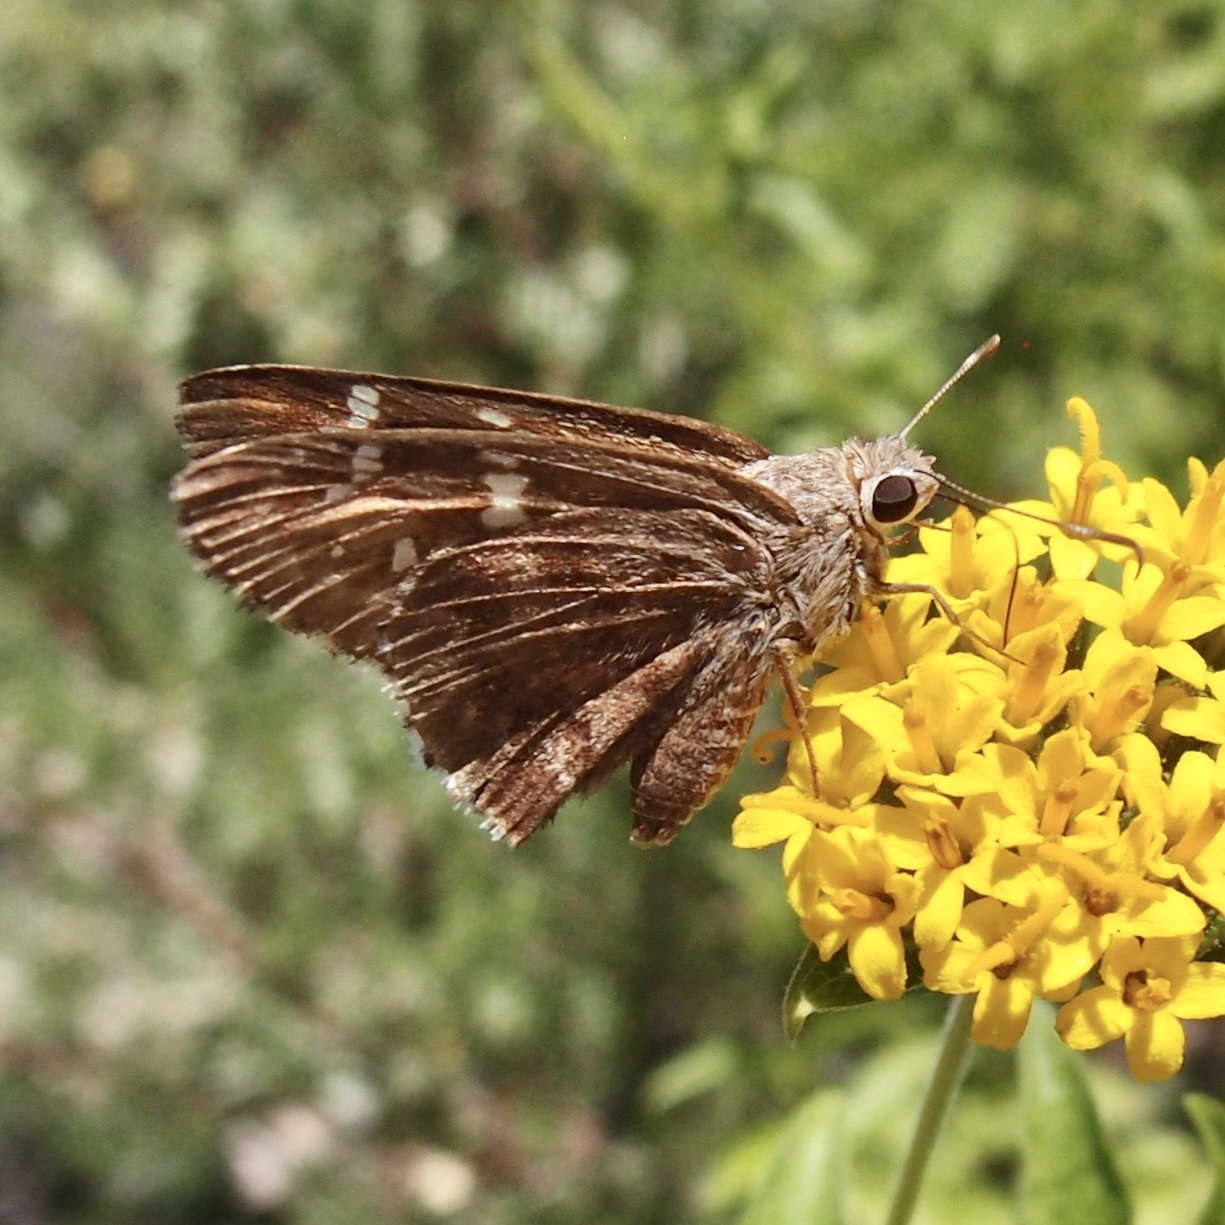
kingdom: Animalia
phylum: Arthropoda
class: Insecta
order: Lepidoptera
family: Hesperiidae
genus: Thorybes
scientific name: Thorybes
